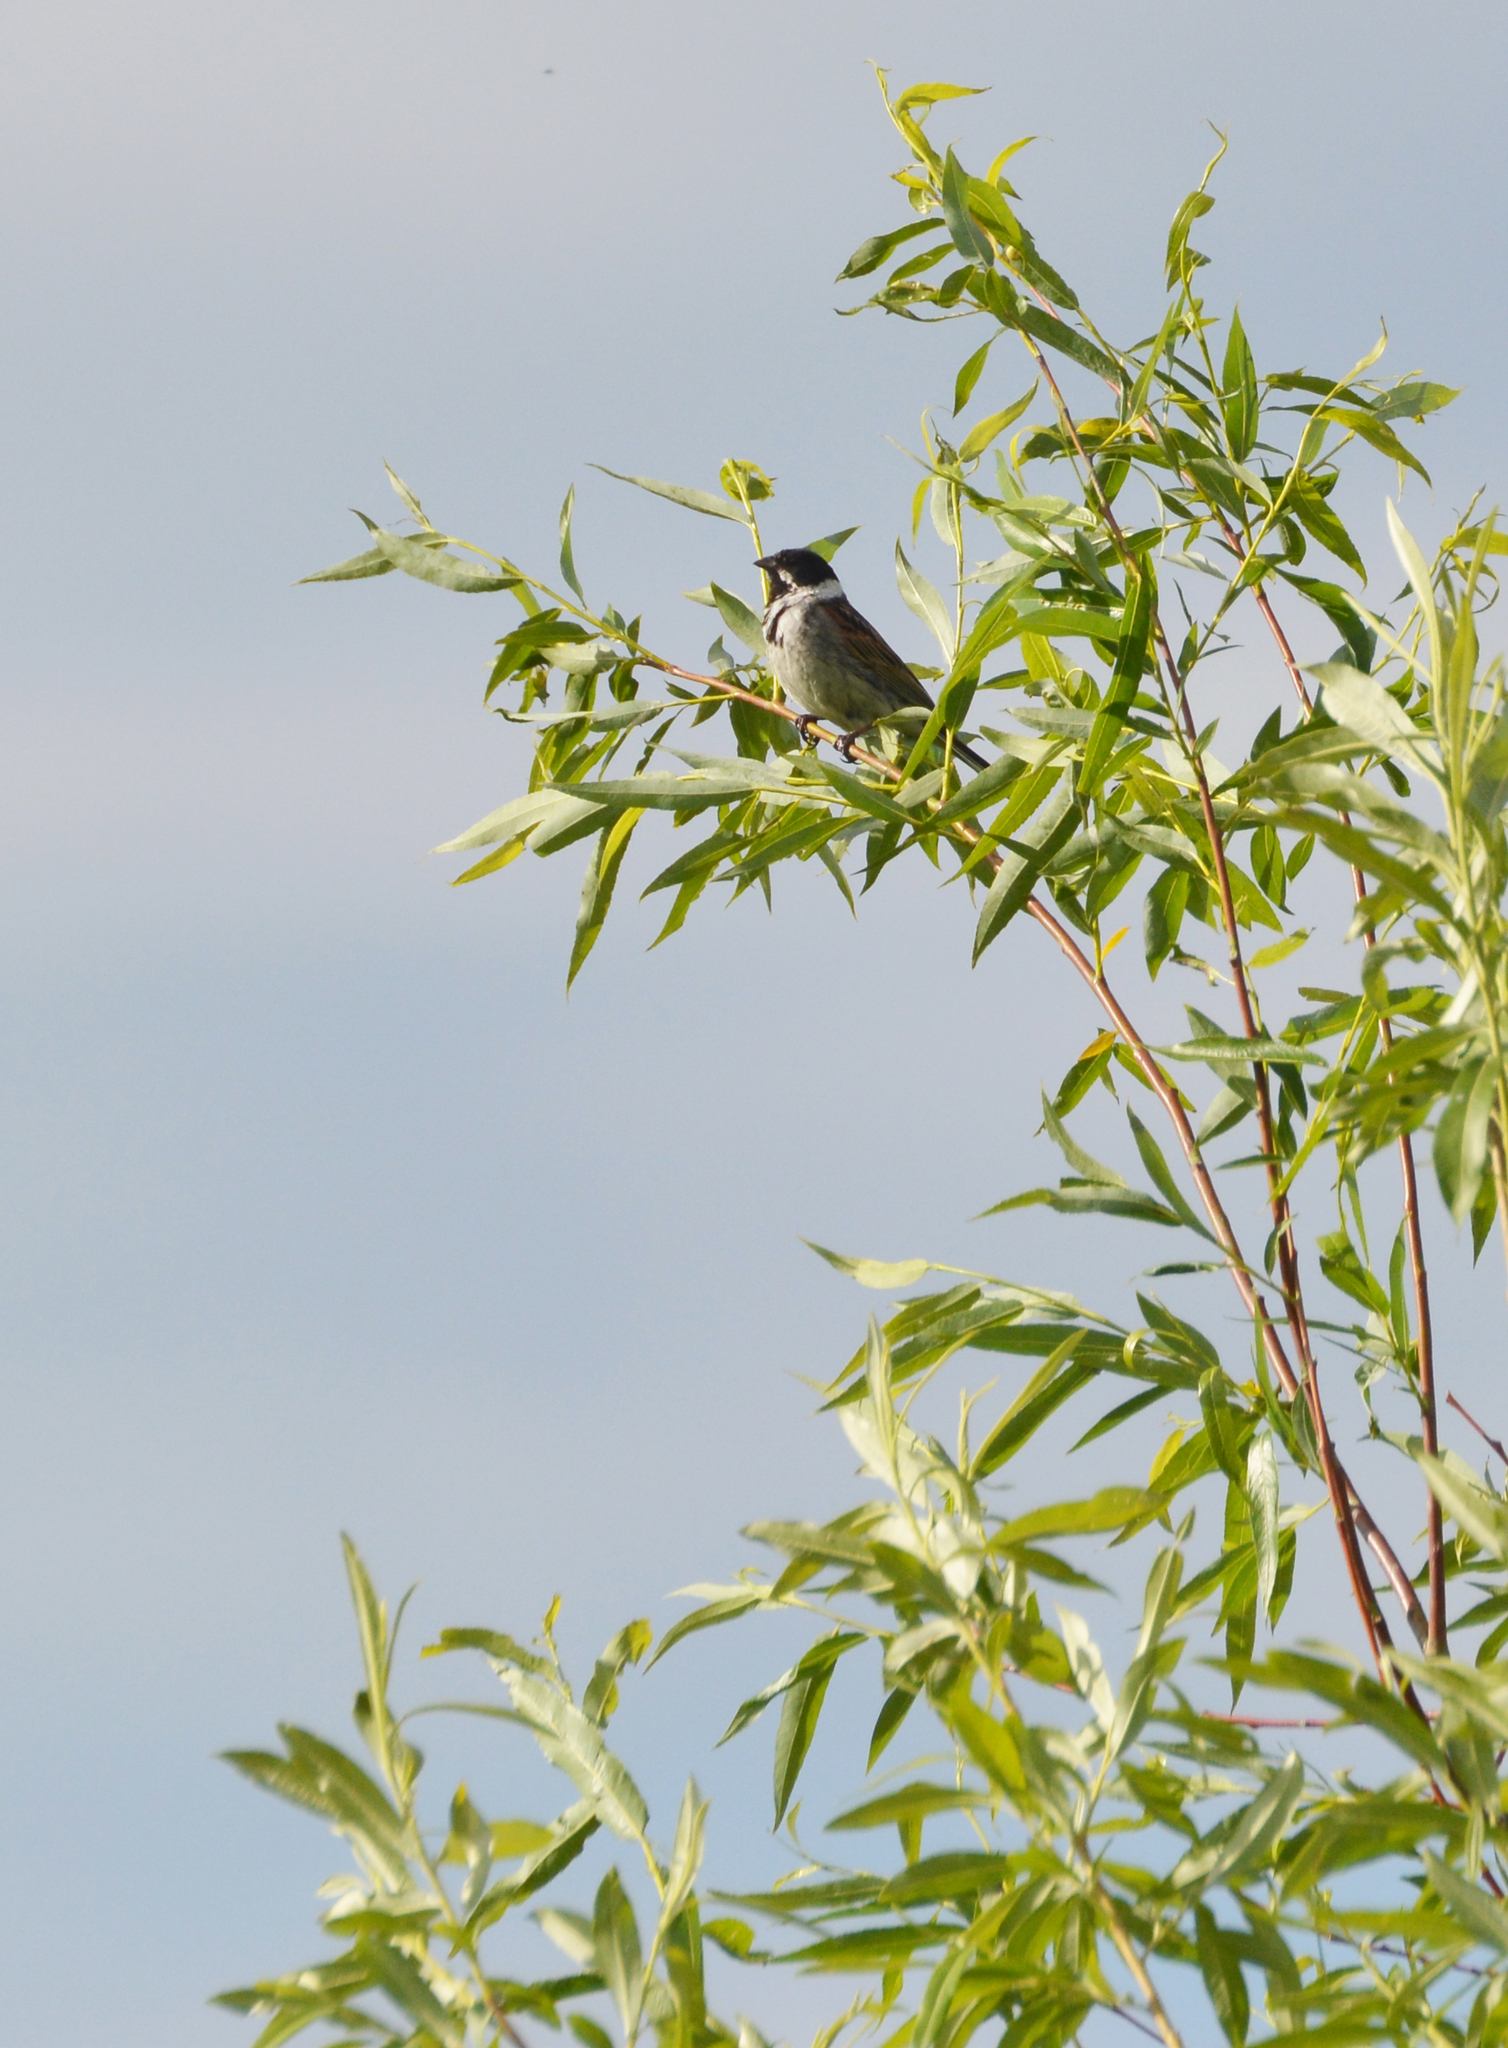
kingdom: Animalia
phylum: Chordata
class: Aves
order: Passeriformes
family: Emberizidae
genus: Emberiza
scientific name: Emberiza schoeniclus
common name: Reed bunting
